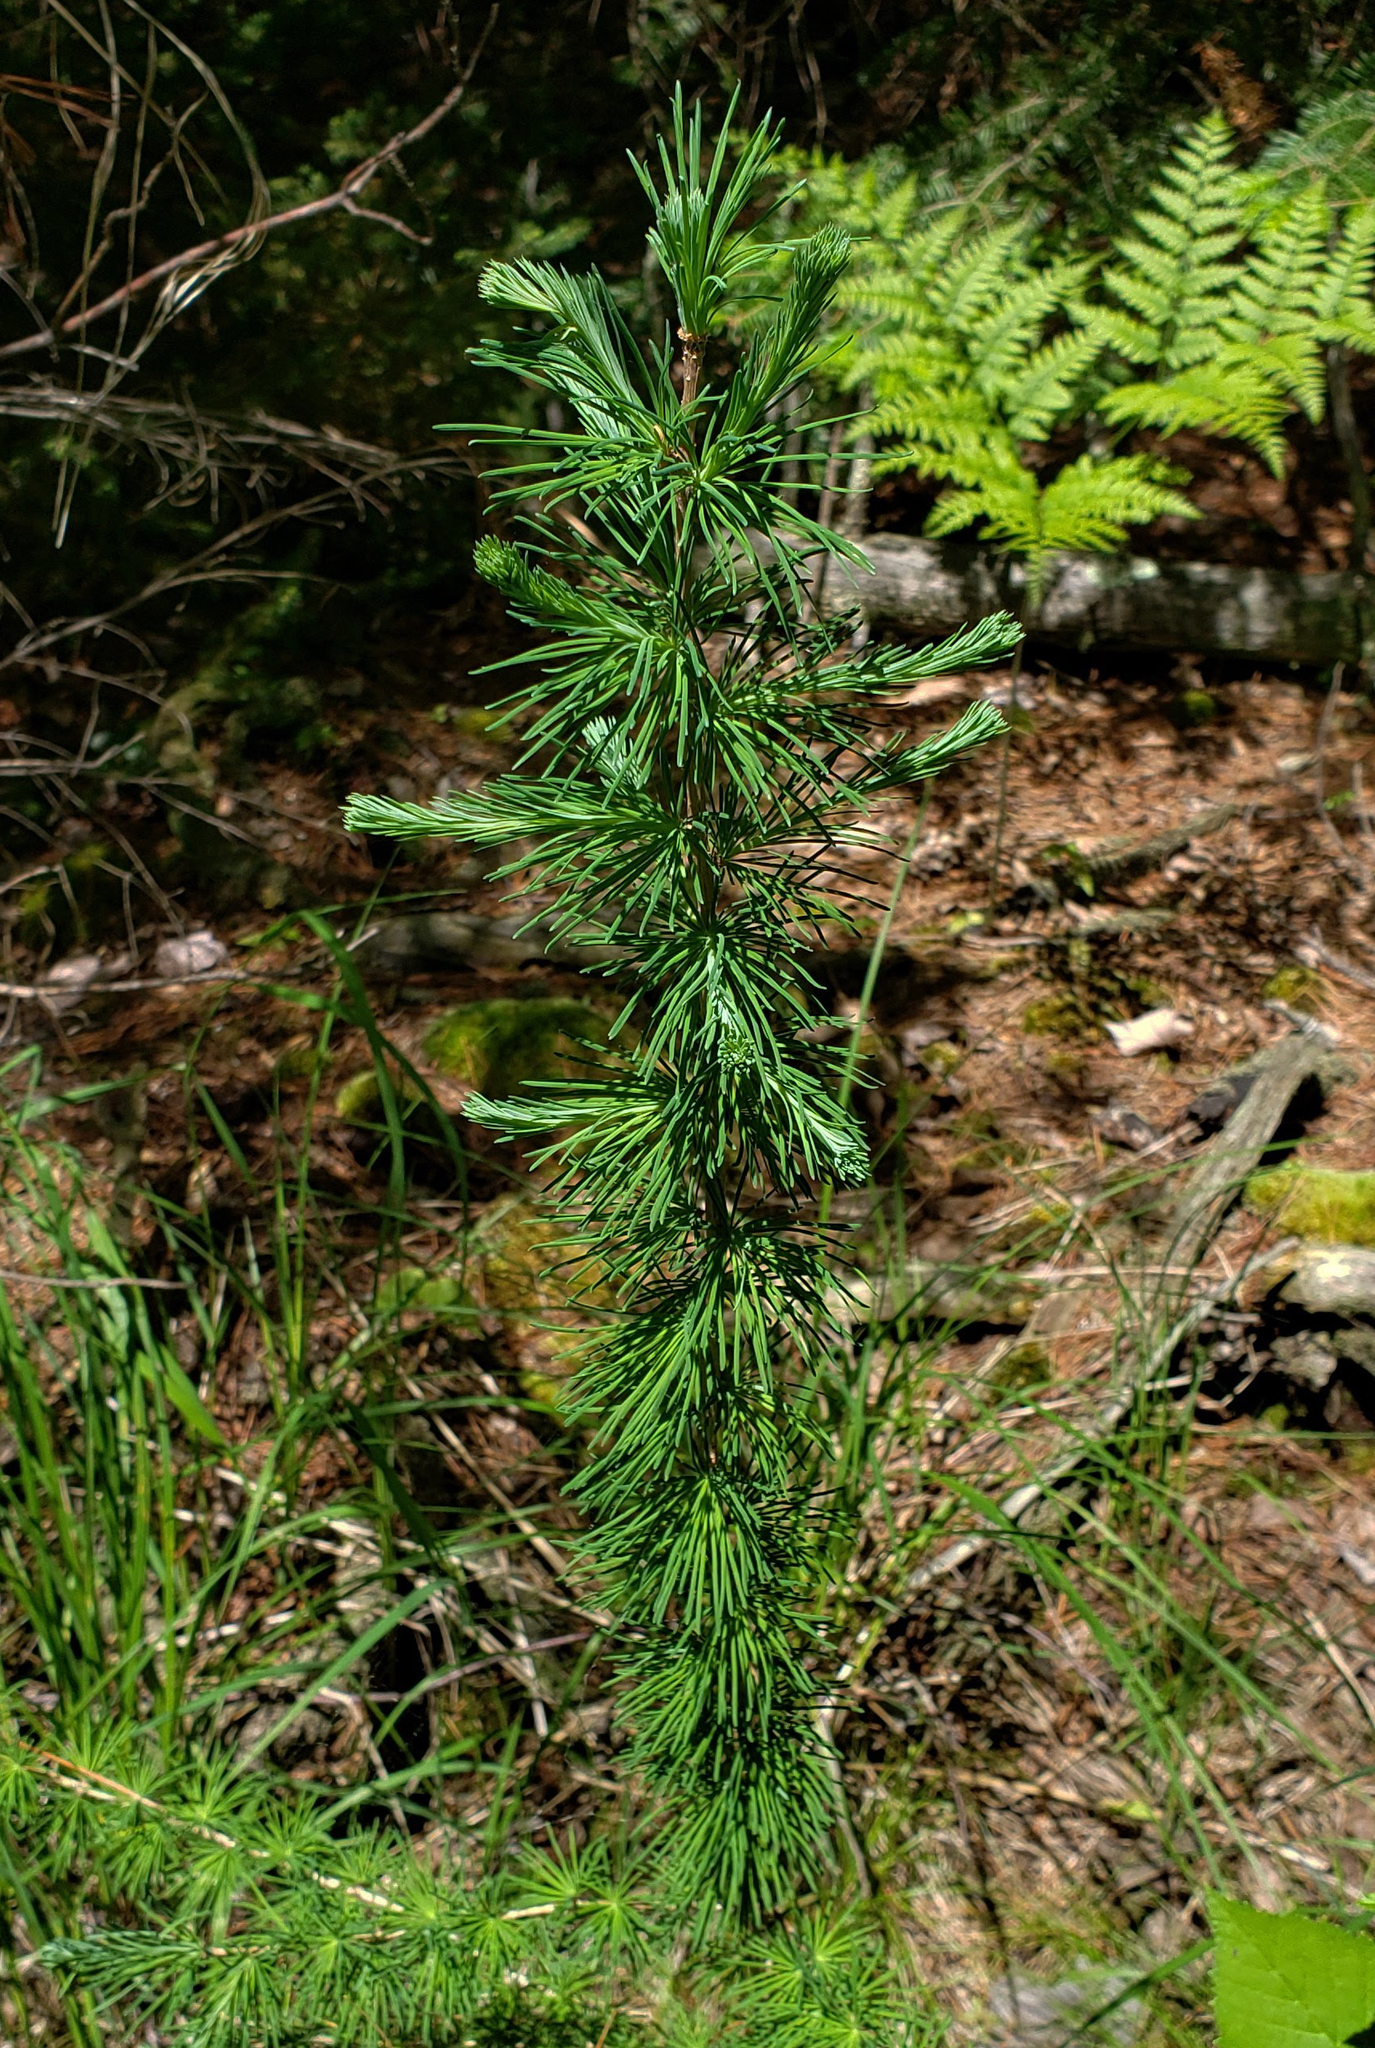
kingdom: Plantae
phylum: Tracheophyta
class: Pinopsida
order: Pinales
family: Pinaceae
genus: Larix
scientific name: Larix laricina
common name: American larch
